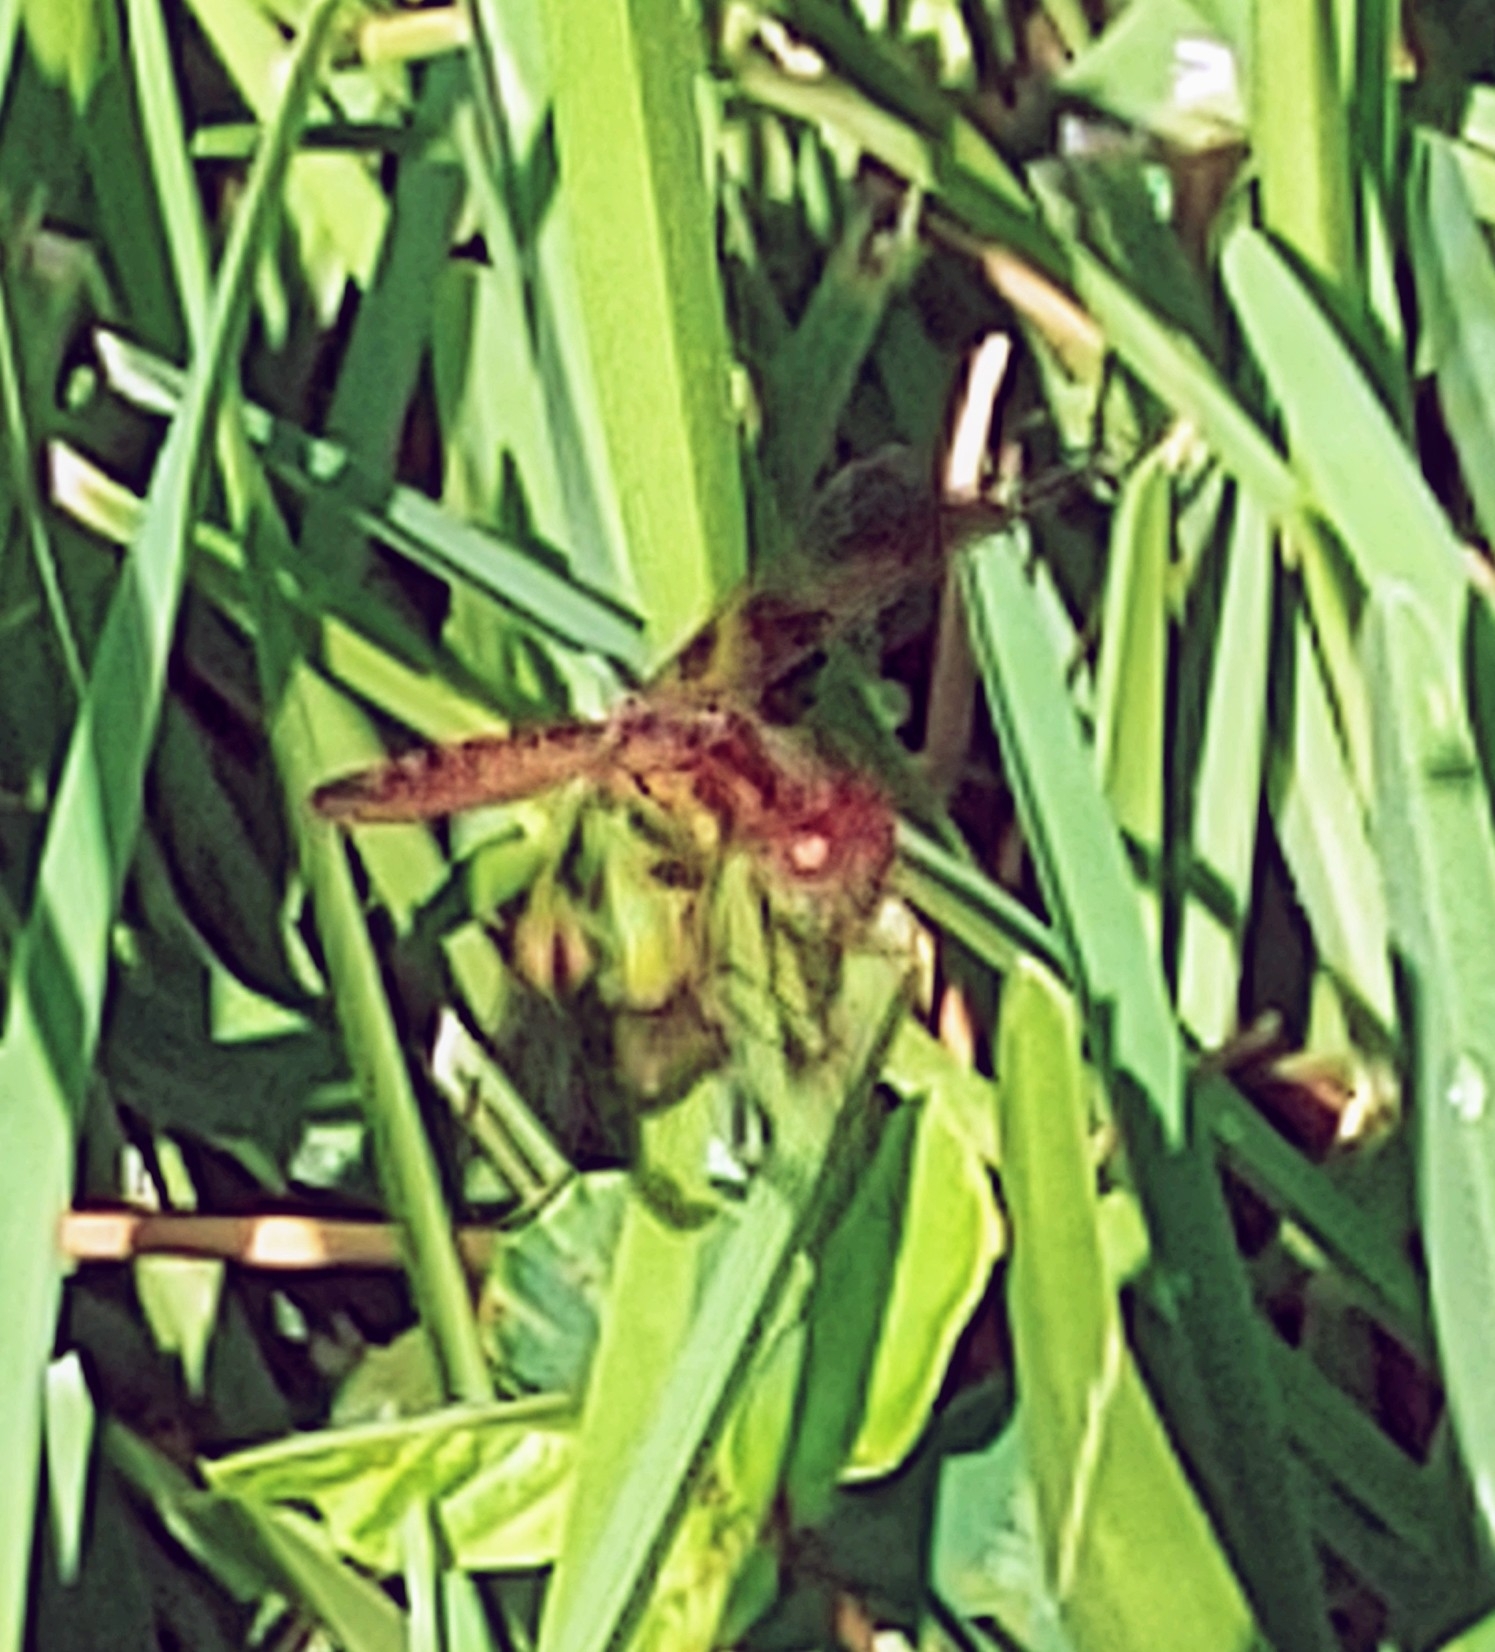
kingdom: Animalia
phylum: Arthropoda
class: Insecta
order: Odonata
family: Libellulidae
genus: Perithemis
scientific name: Perithemis tenera
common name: Eastern amberwing
